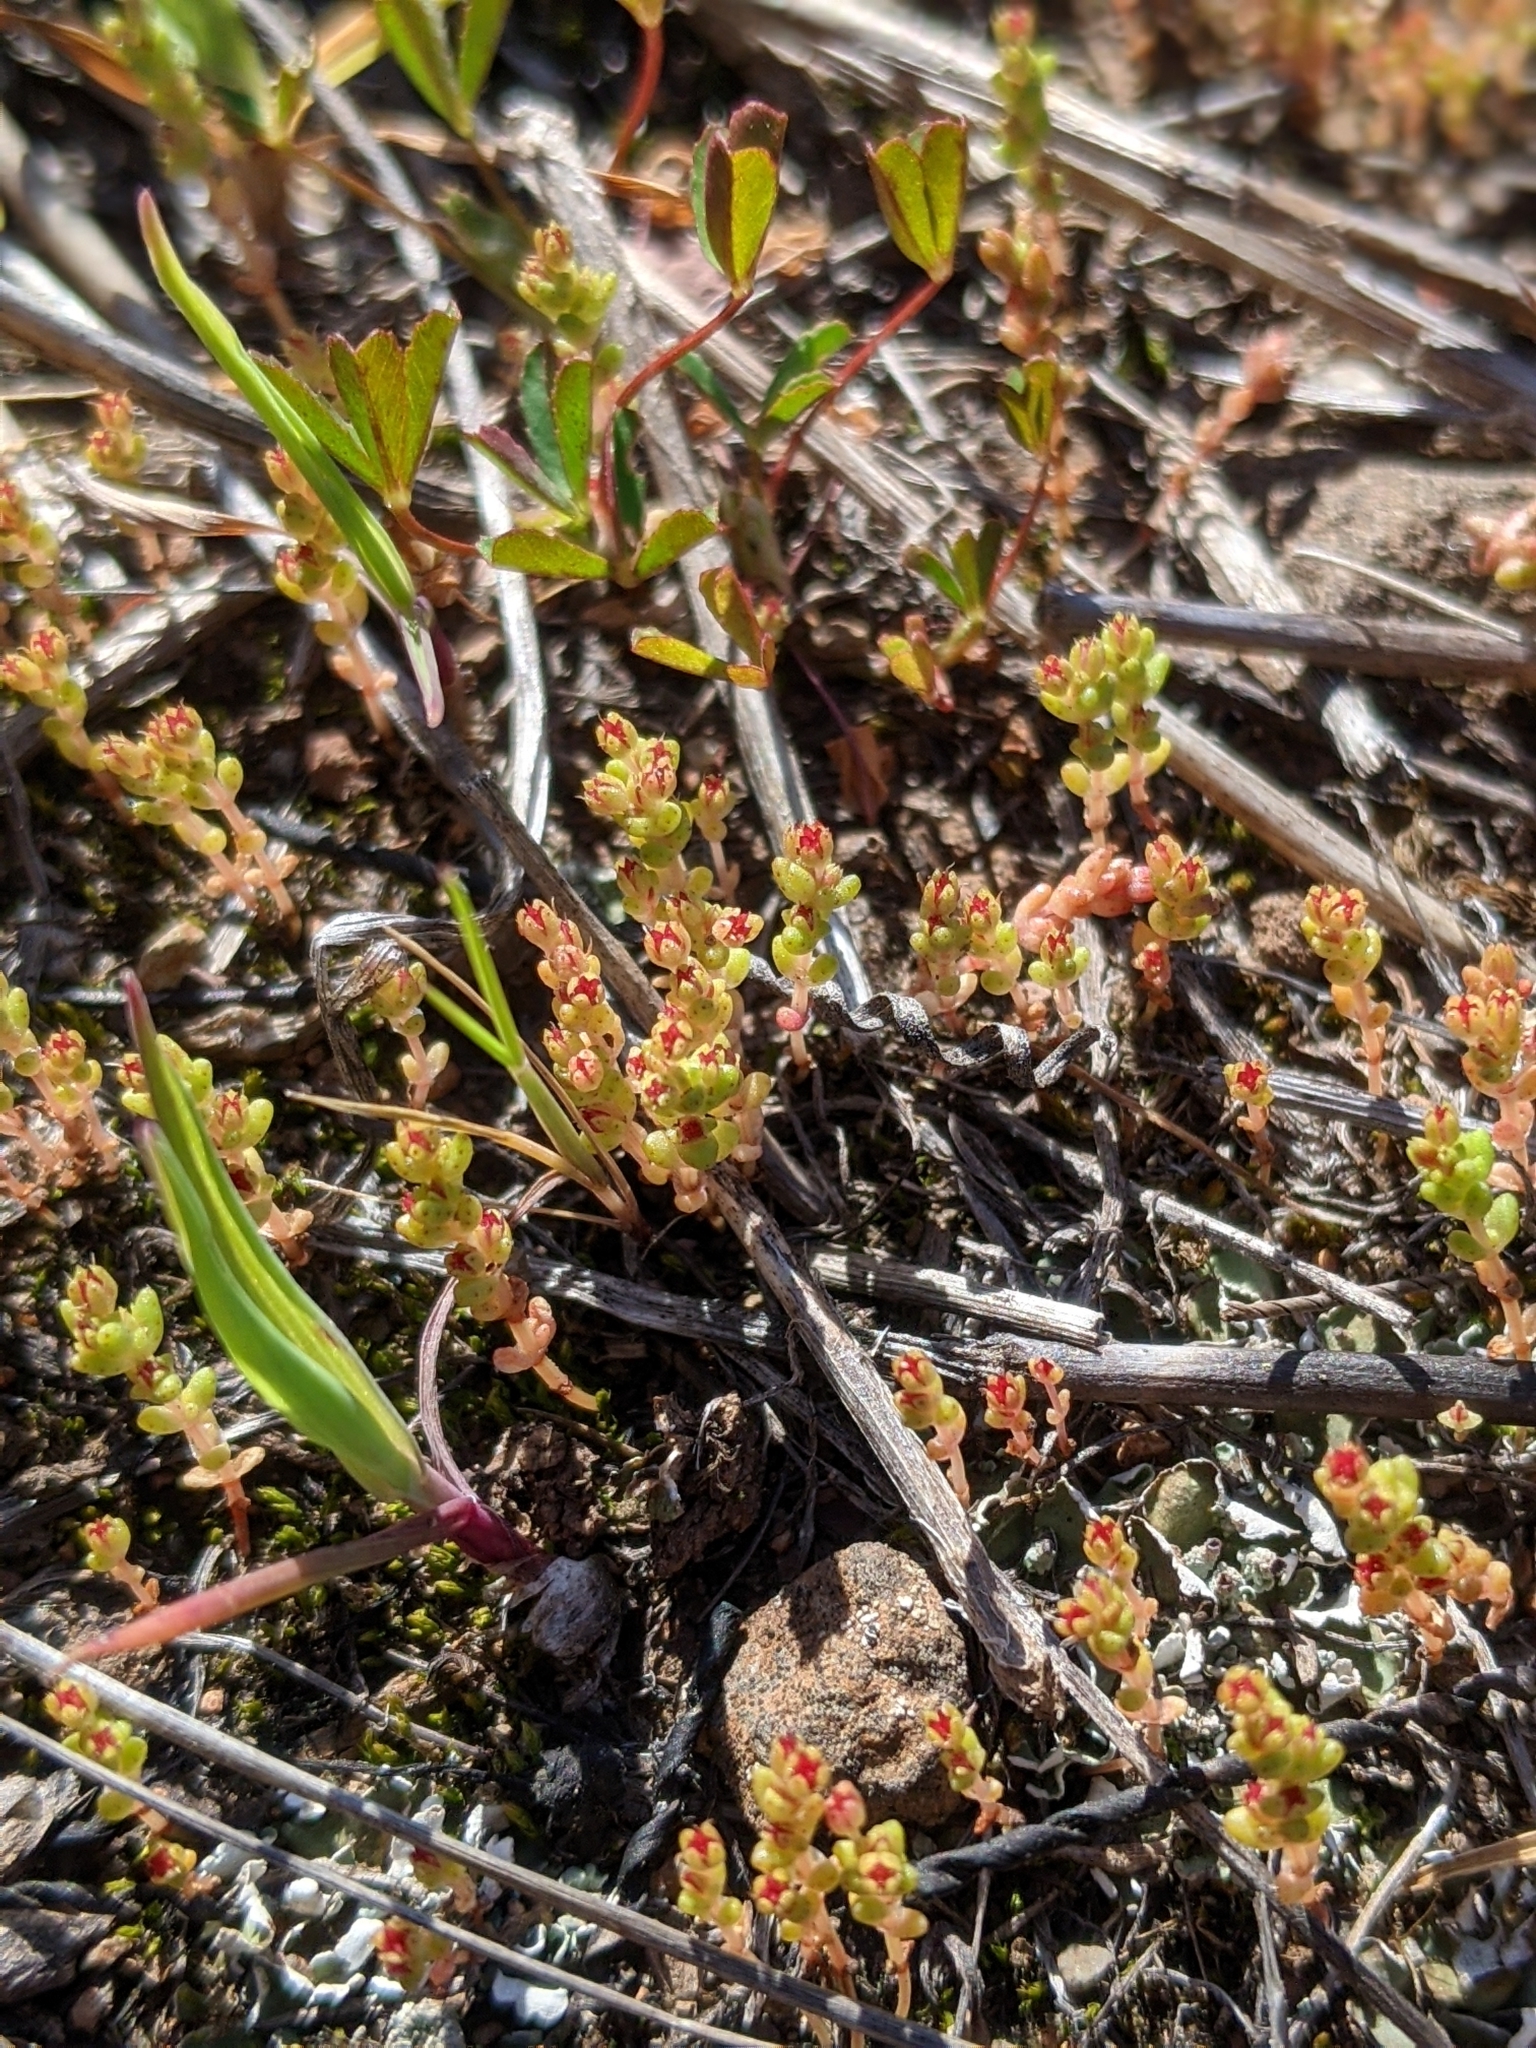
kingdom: Plantae
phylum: Tracheophyta
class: Magnoliopsida
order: Saxifragales
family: Crassulaceae
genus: Crassula
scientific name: Crassula connata
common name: Erect pygmyweed
